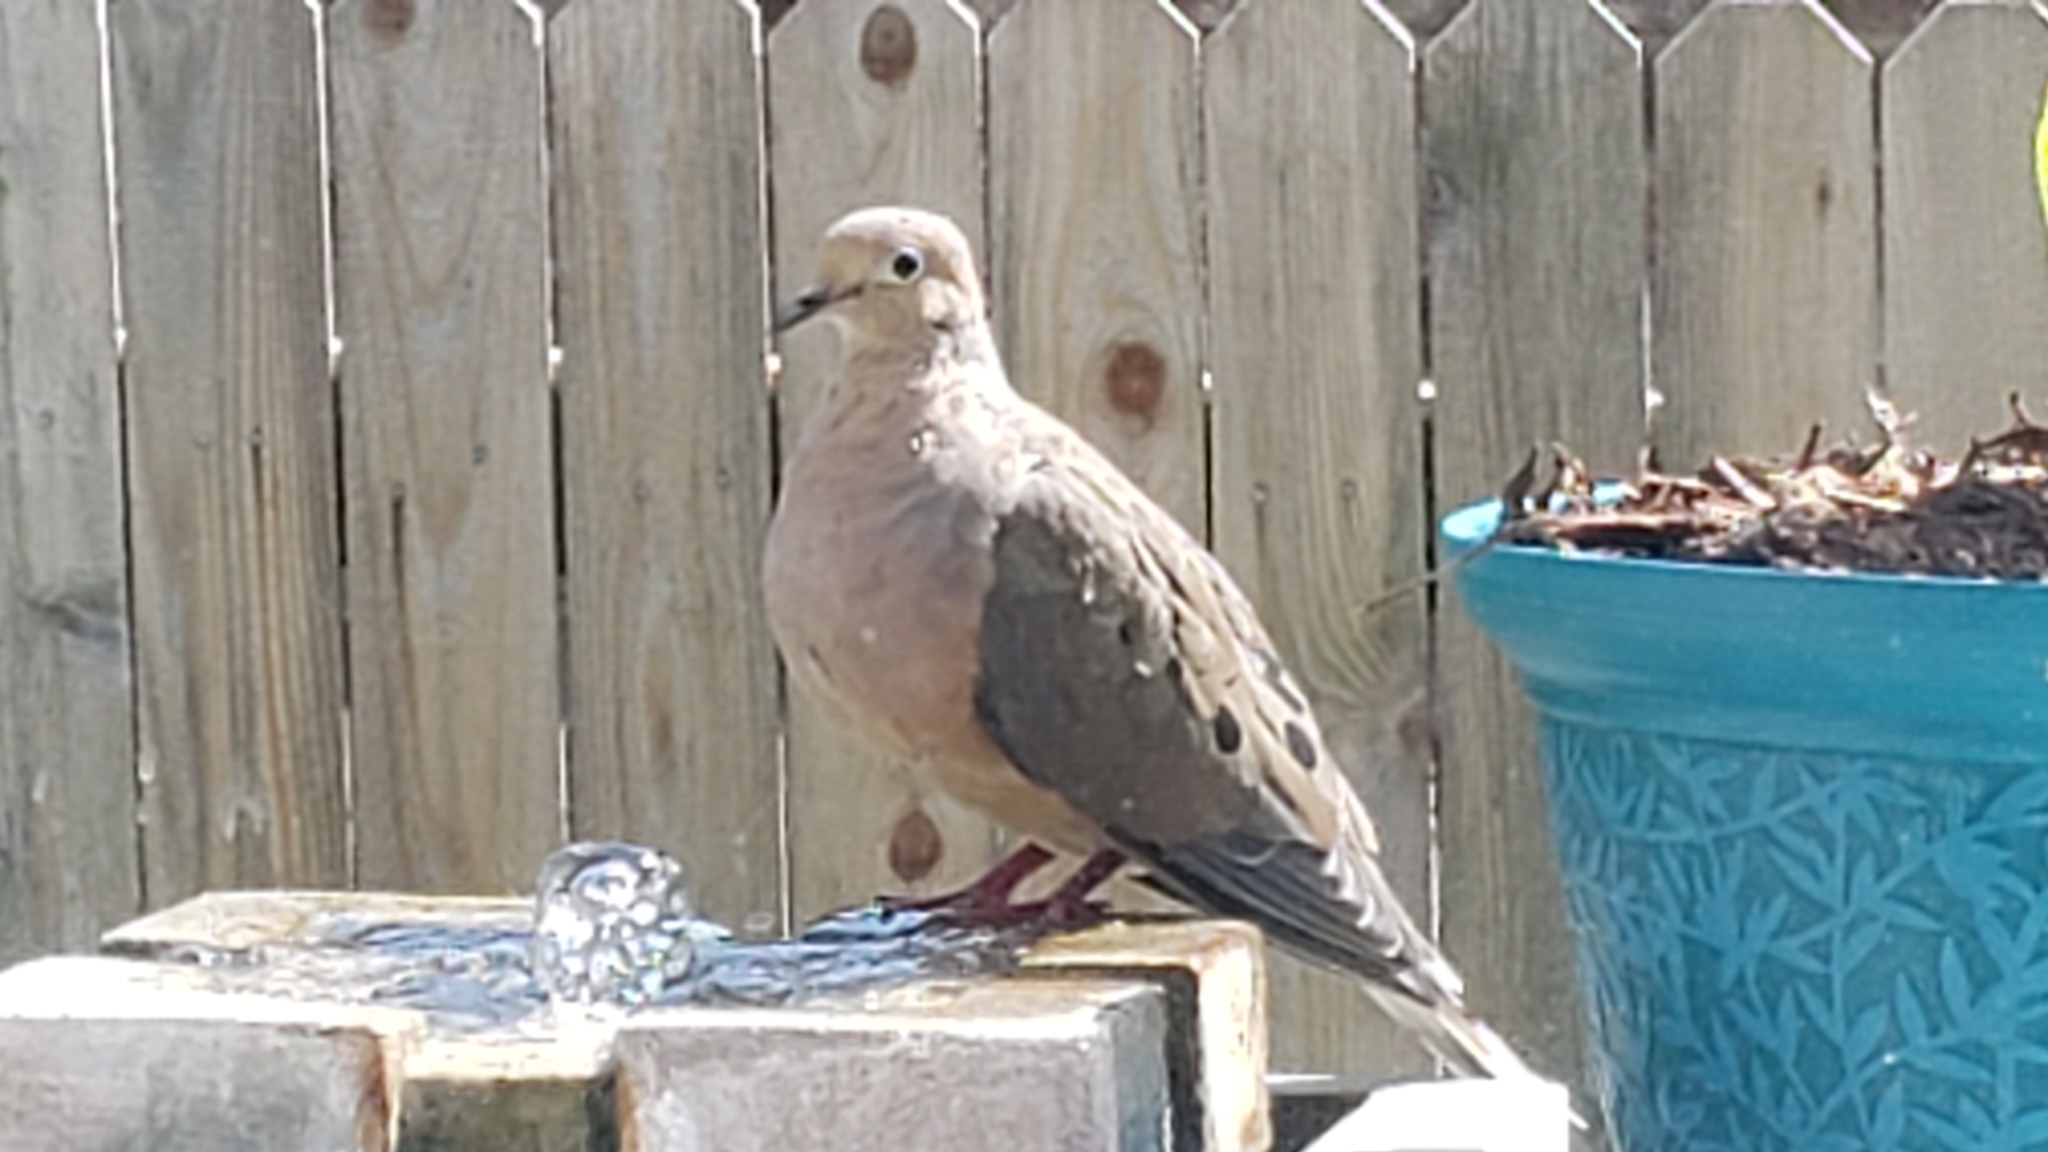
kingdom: Animalia
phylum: Chordata
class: Aves
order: Columbiformes
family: Columbidae
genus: Zenaida
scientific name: Zenaida macroura
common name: Mourning dove
